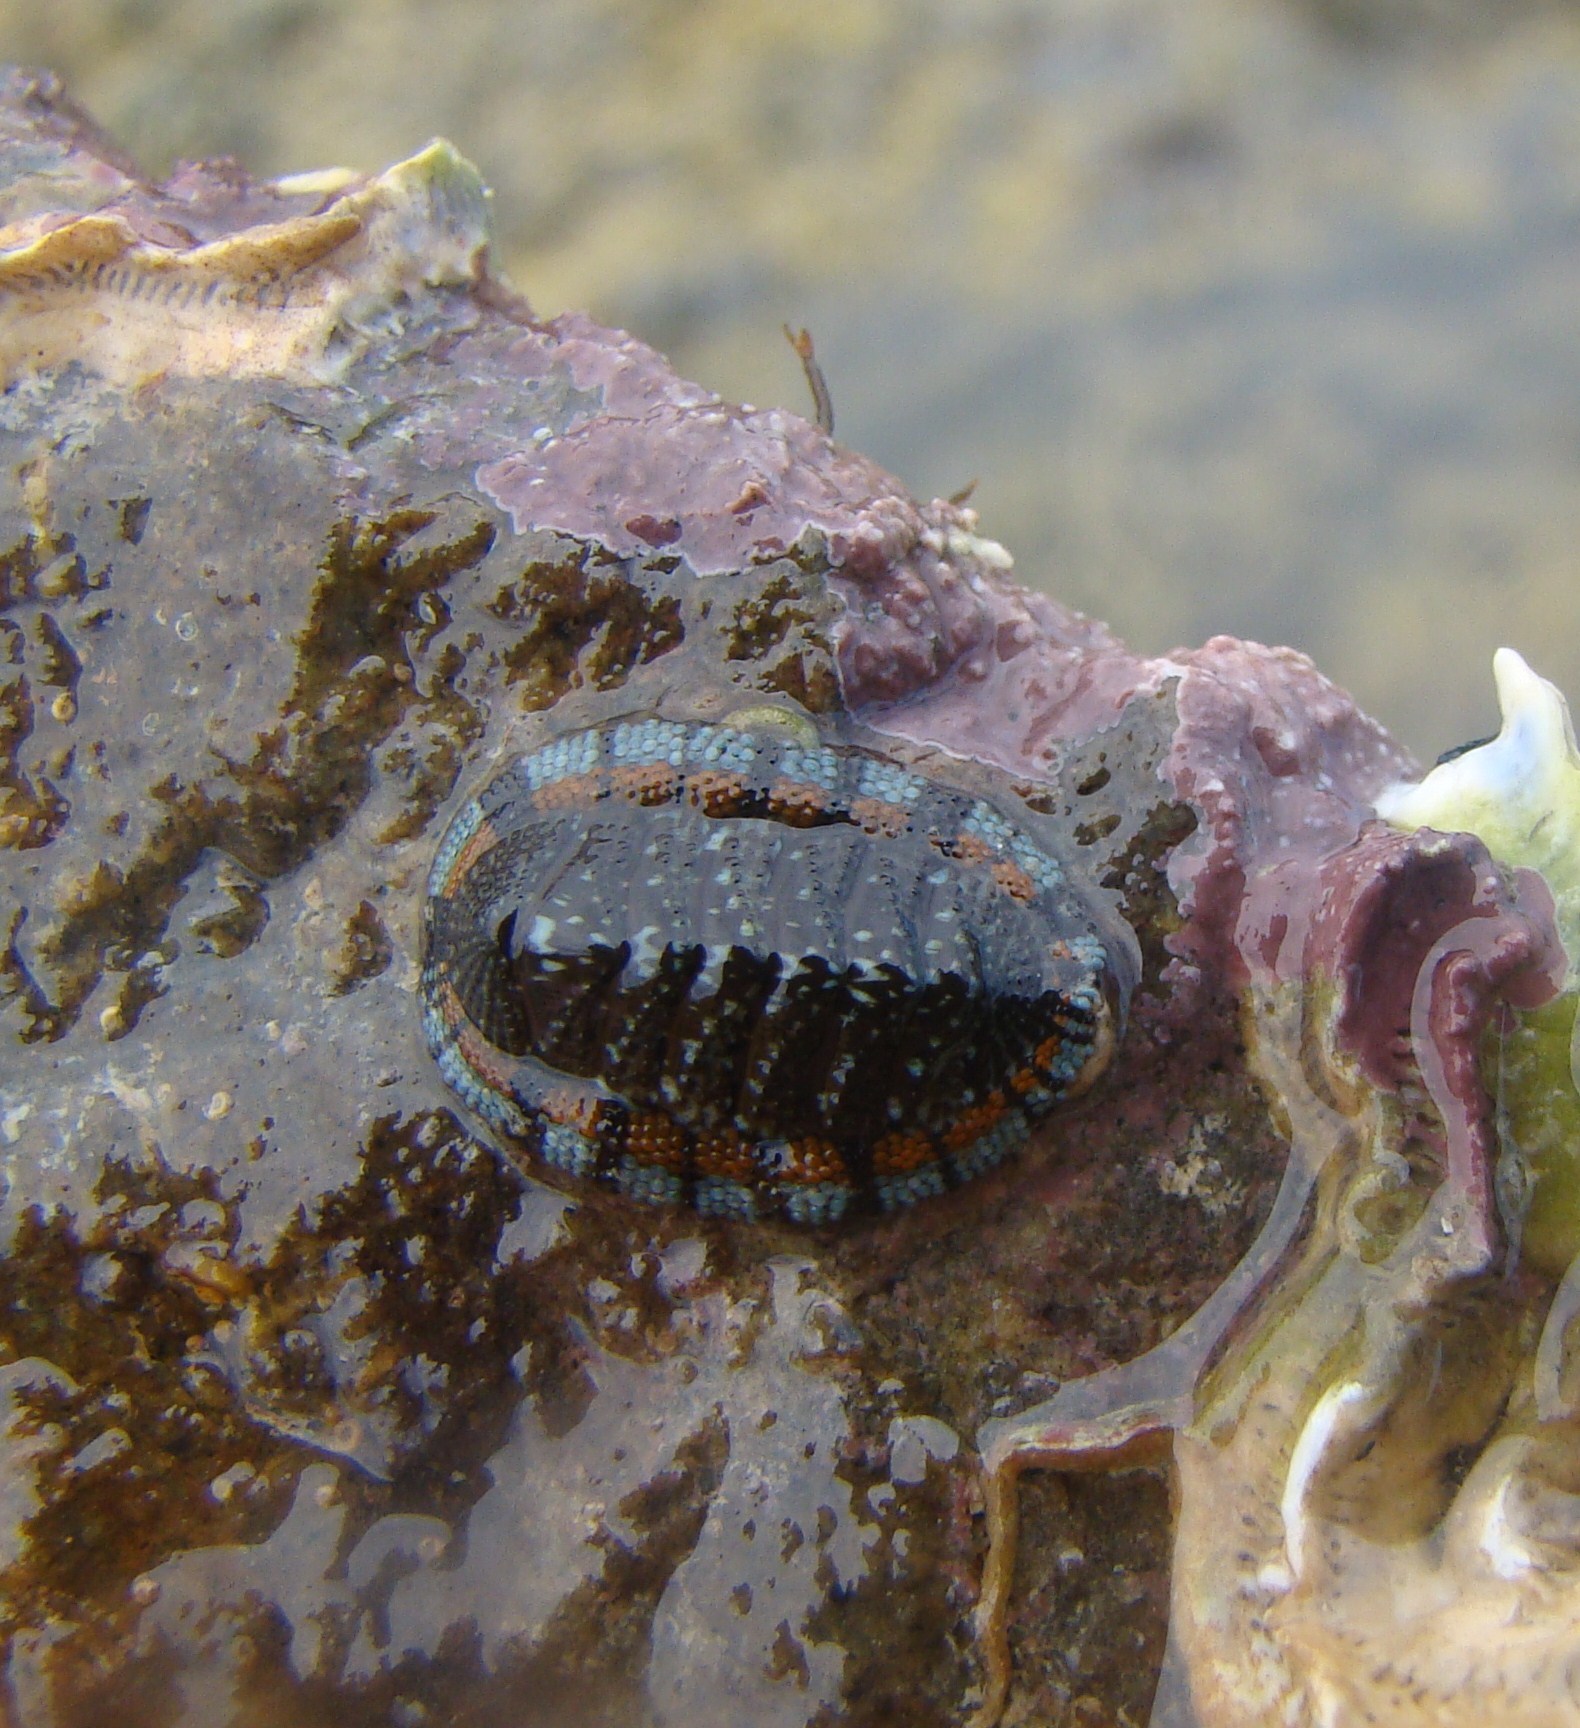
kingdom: Animalia
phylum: Mollusca
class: Polyplacophora
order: Chitonida
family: Chitonidae
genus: Sypharochiton
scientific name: Sypharochiton sinclairi
